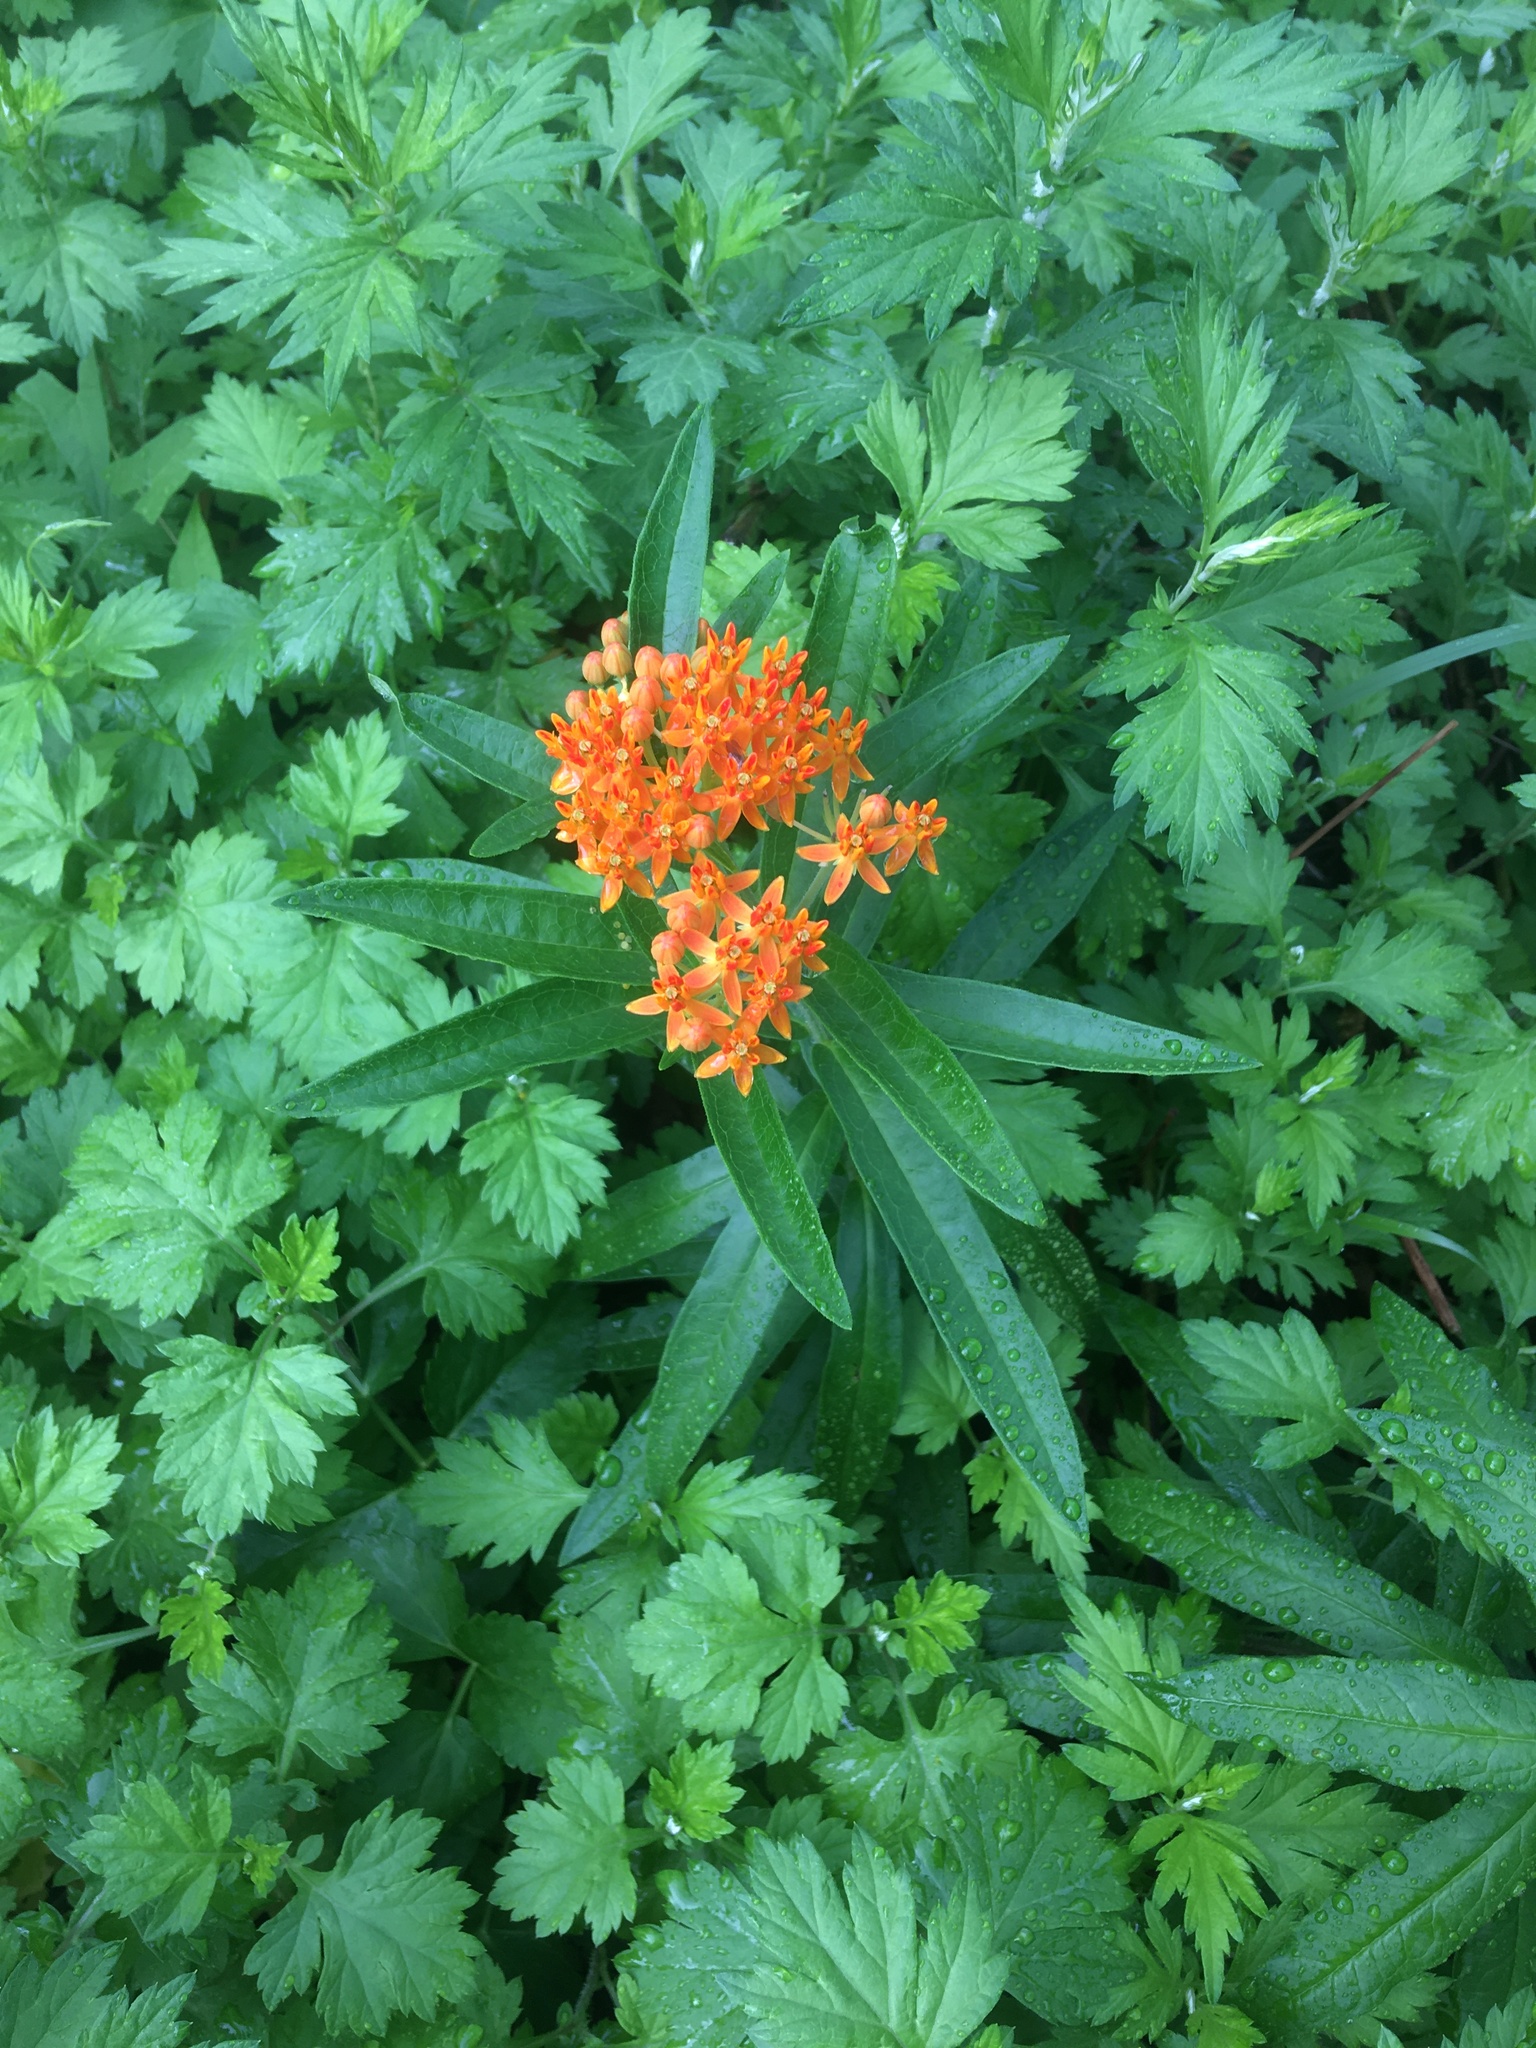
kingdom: Plantae
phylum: Tracheophyta
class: Magnoliopsida
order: Gentianales
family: Apocynaceae
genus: Asclepias
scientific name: Asclepias tuberosa
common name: Butterfly milkweed
